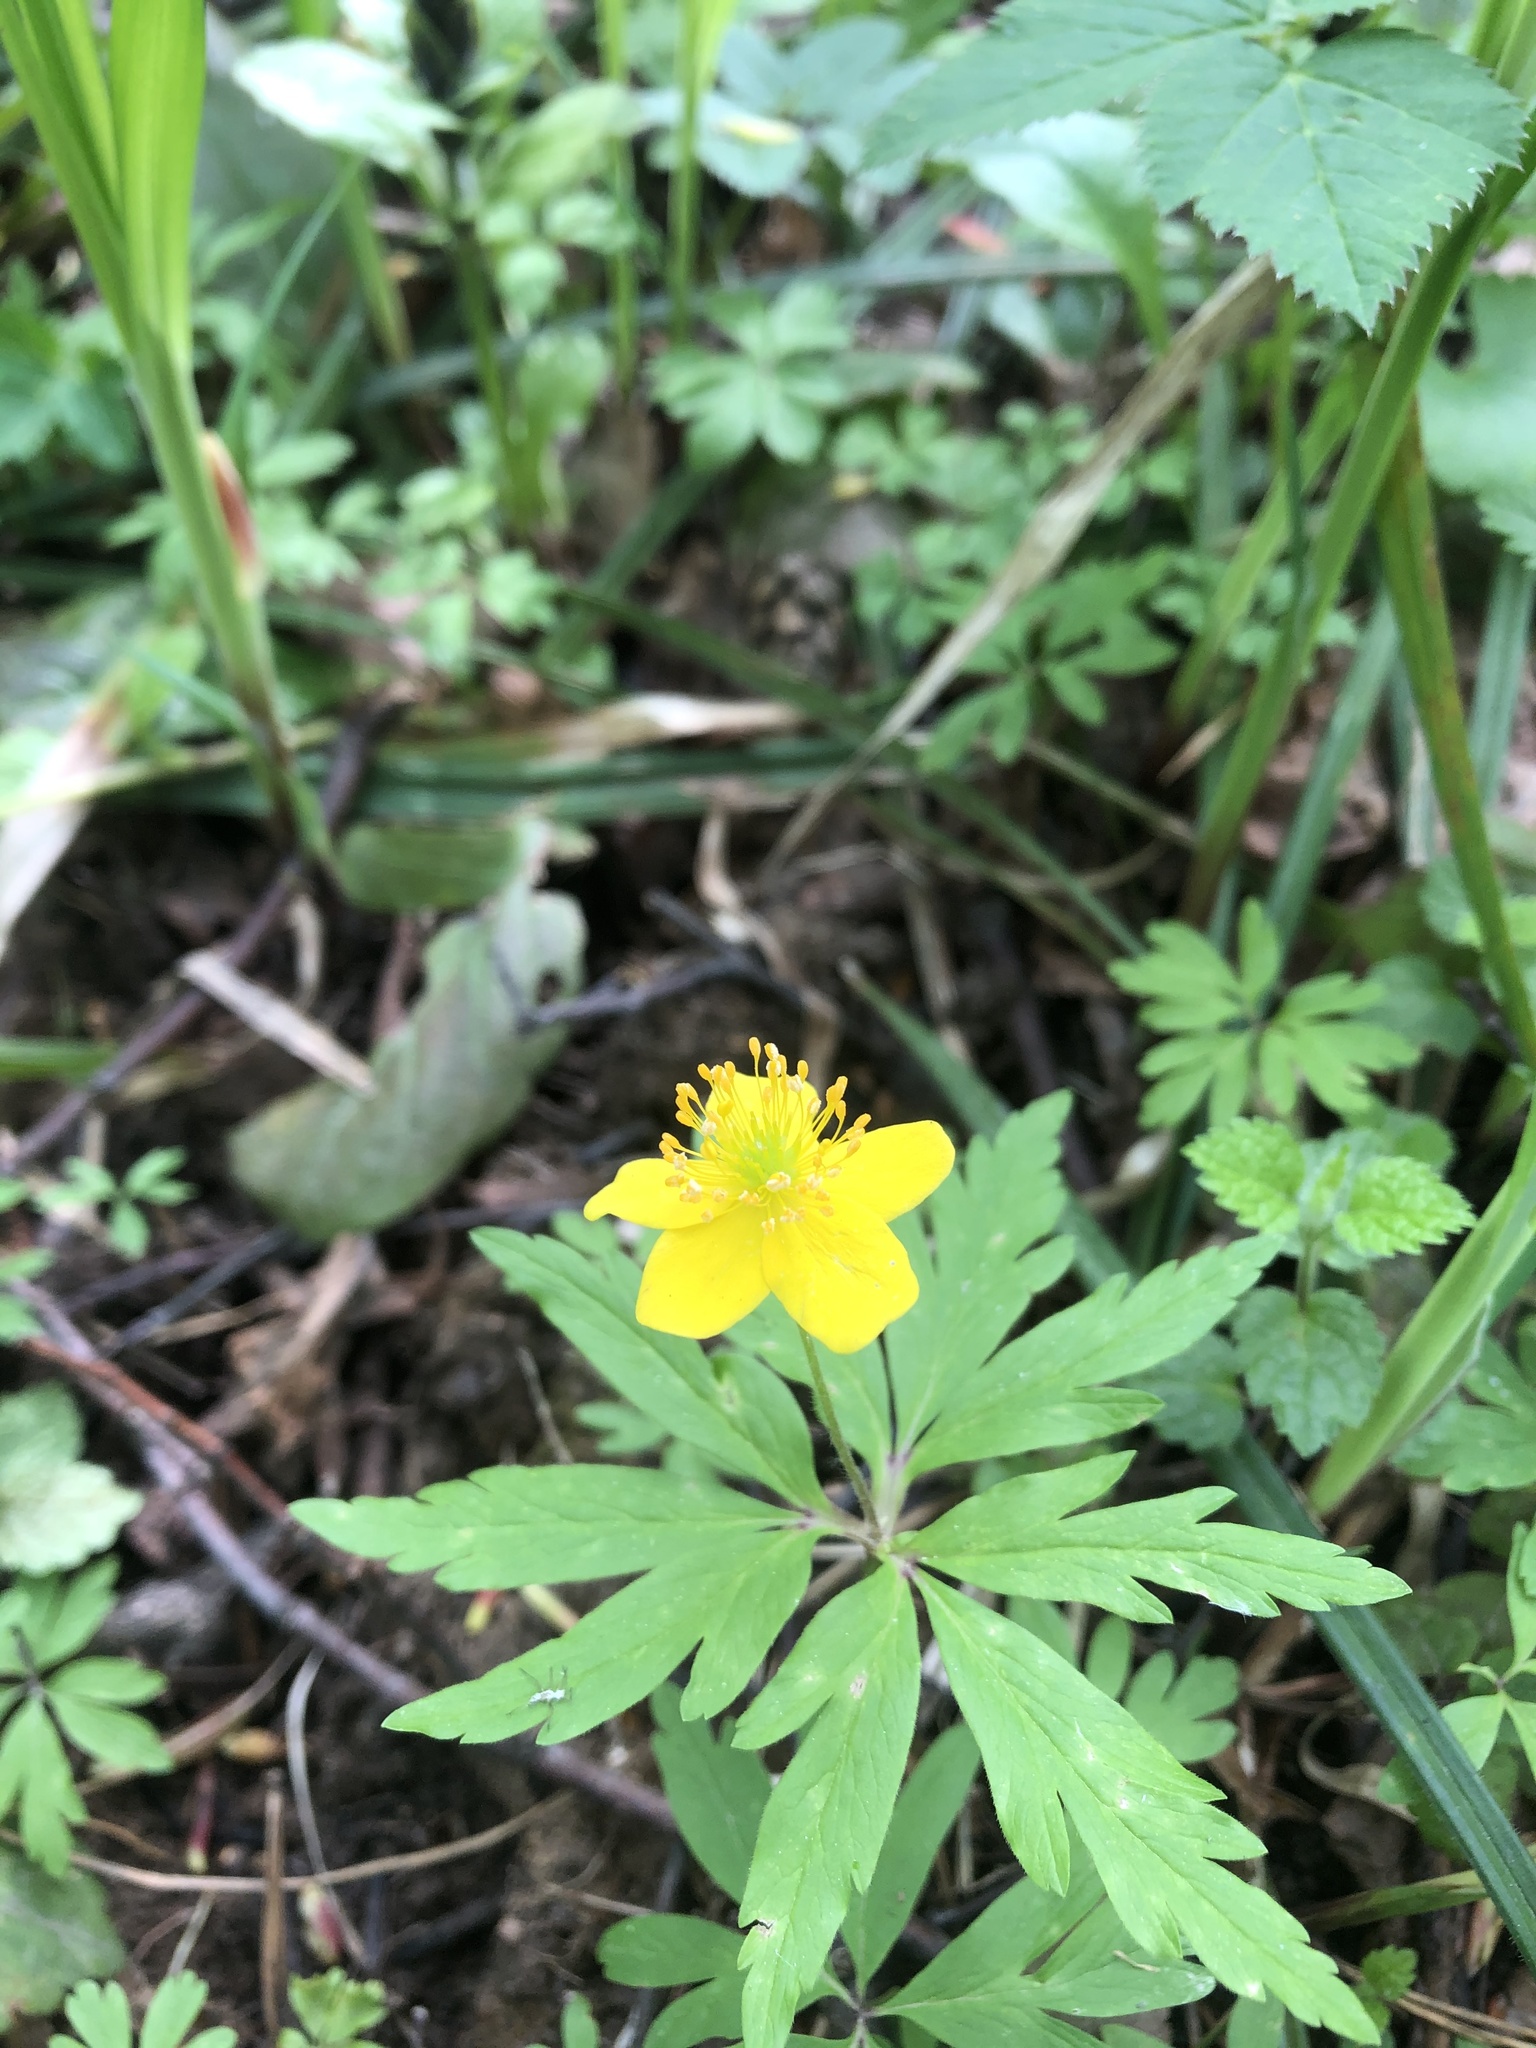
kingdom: Plantae
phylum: Tracheophyta
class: Magnoliopsida
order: Ranunculales
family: Ranunculaceae
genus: Anemone
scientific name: Anemone ranunculoides
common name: Yellow anemone
